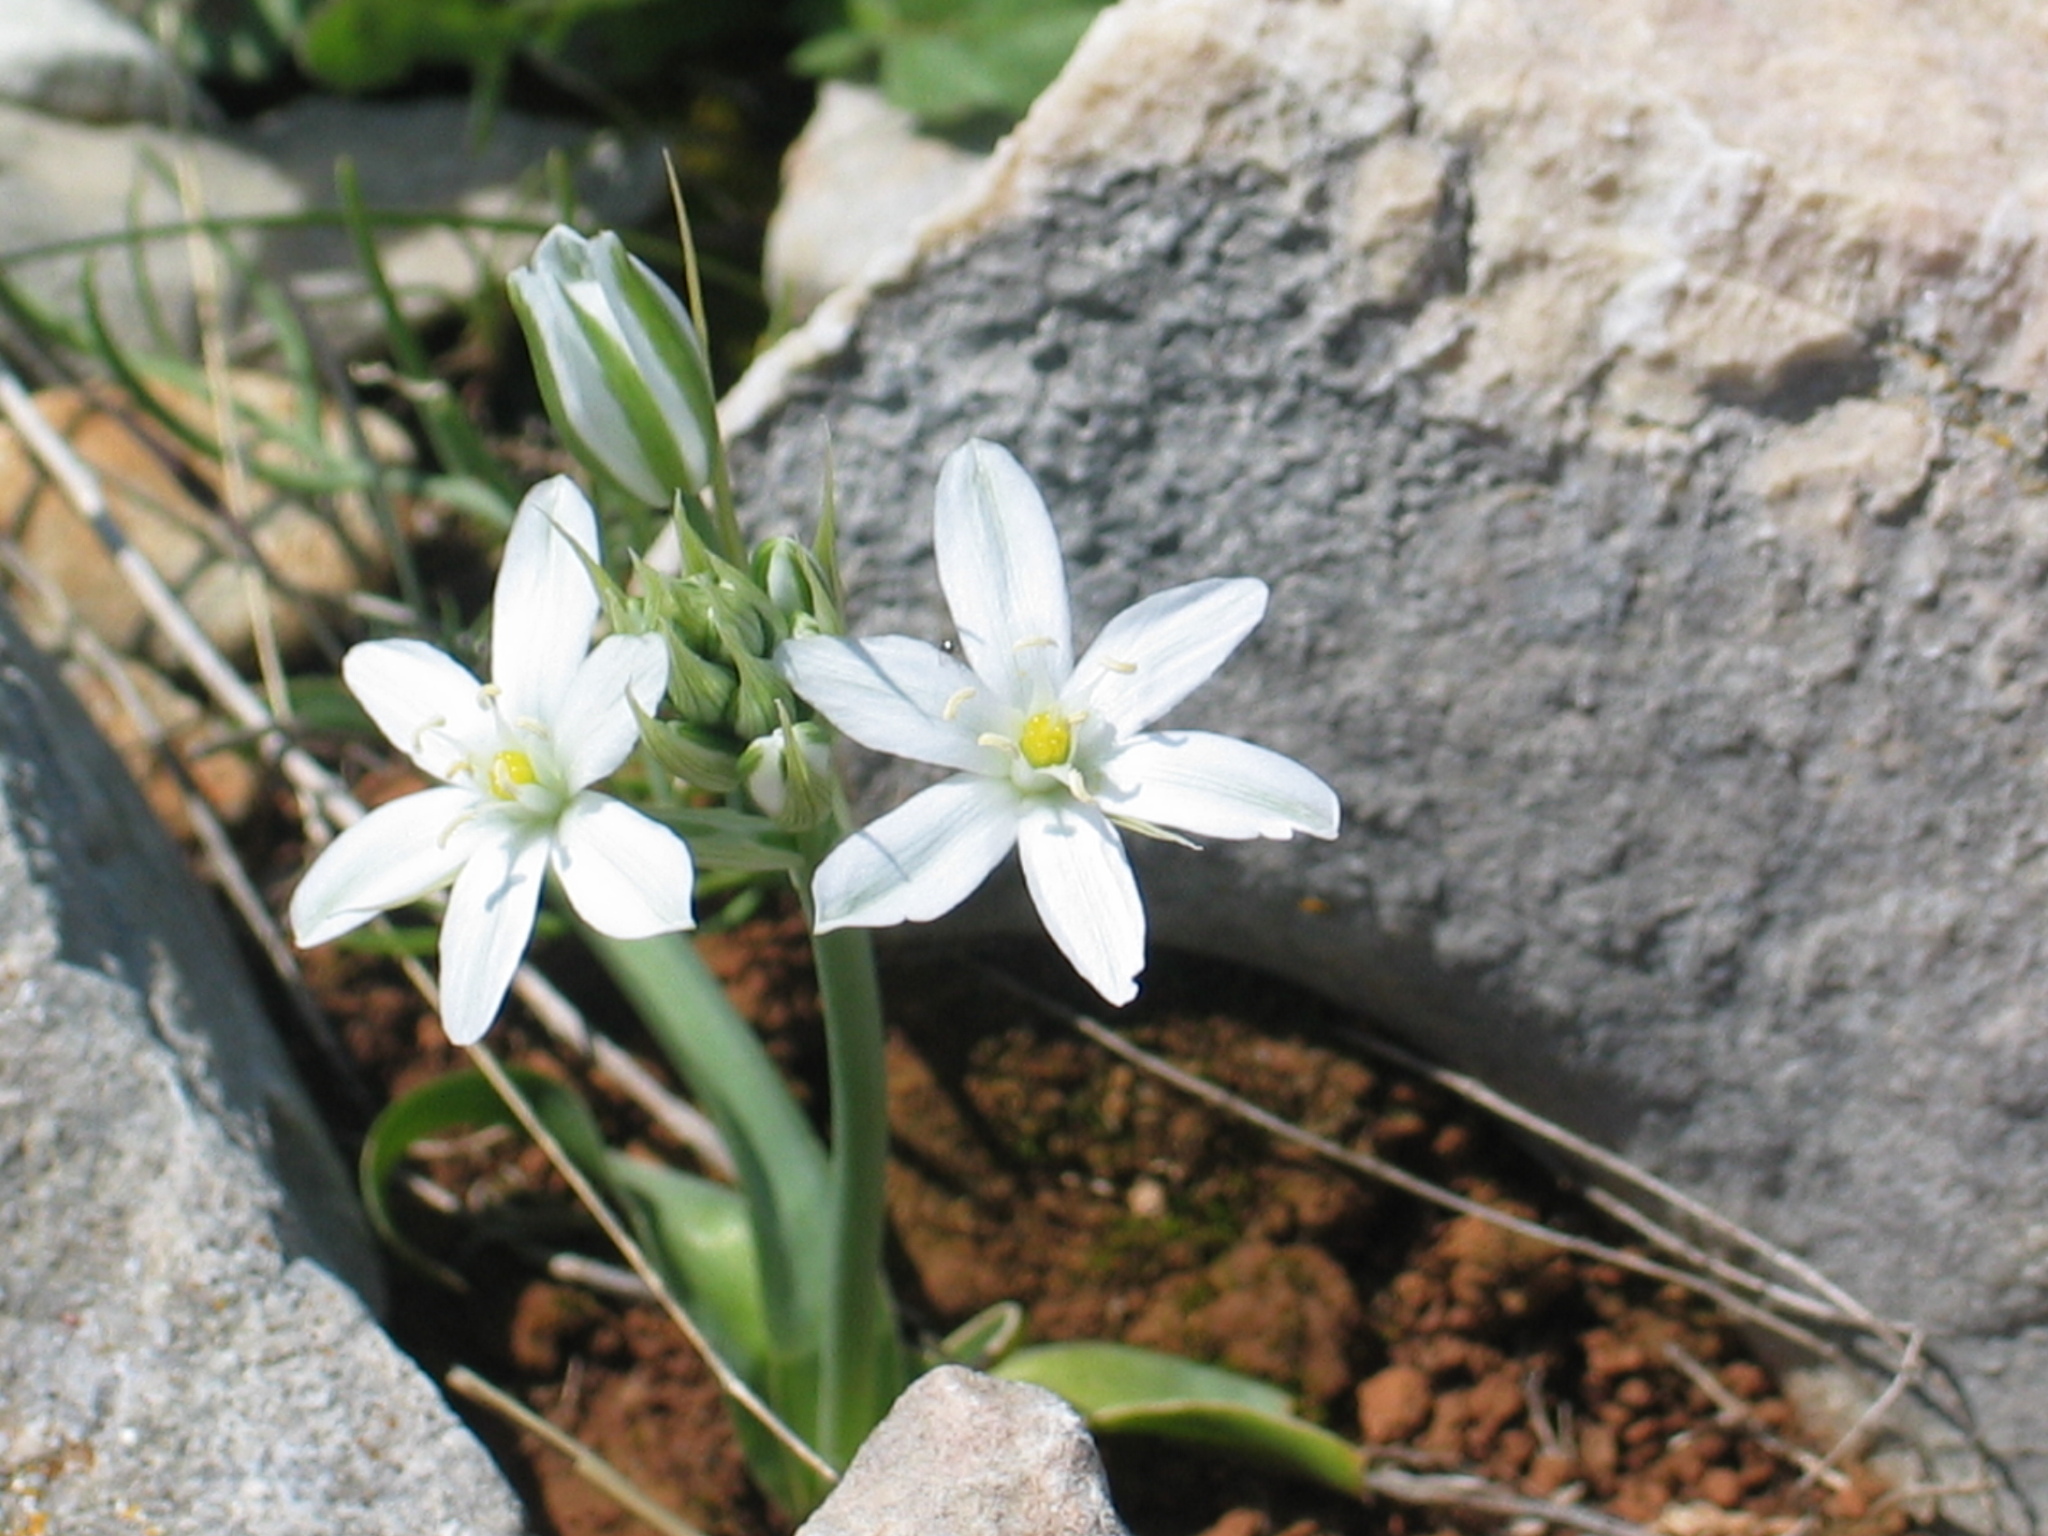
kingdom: Plantae
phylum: Tracheophyta
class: Liliopsida
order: Asparagales
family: Asparagaceae
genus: Ornithogalum
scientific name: Ornithogalum comosum
